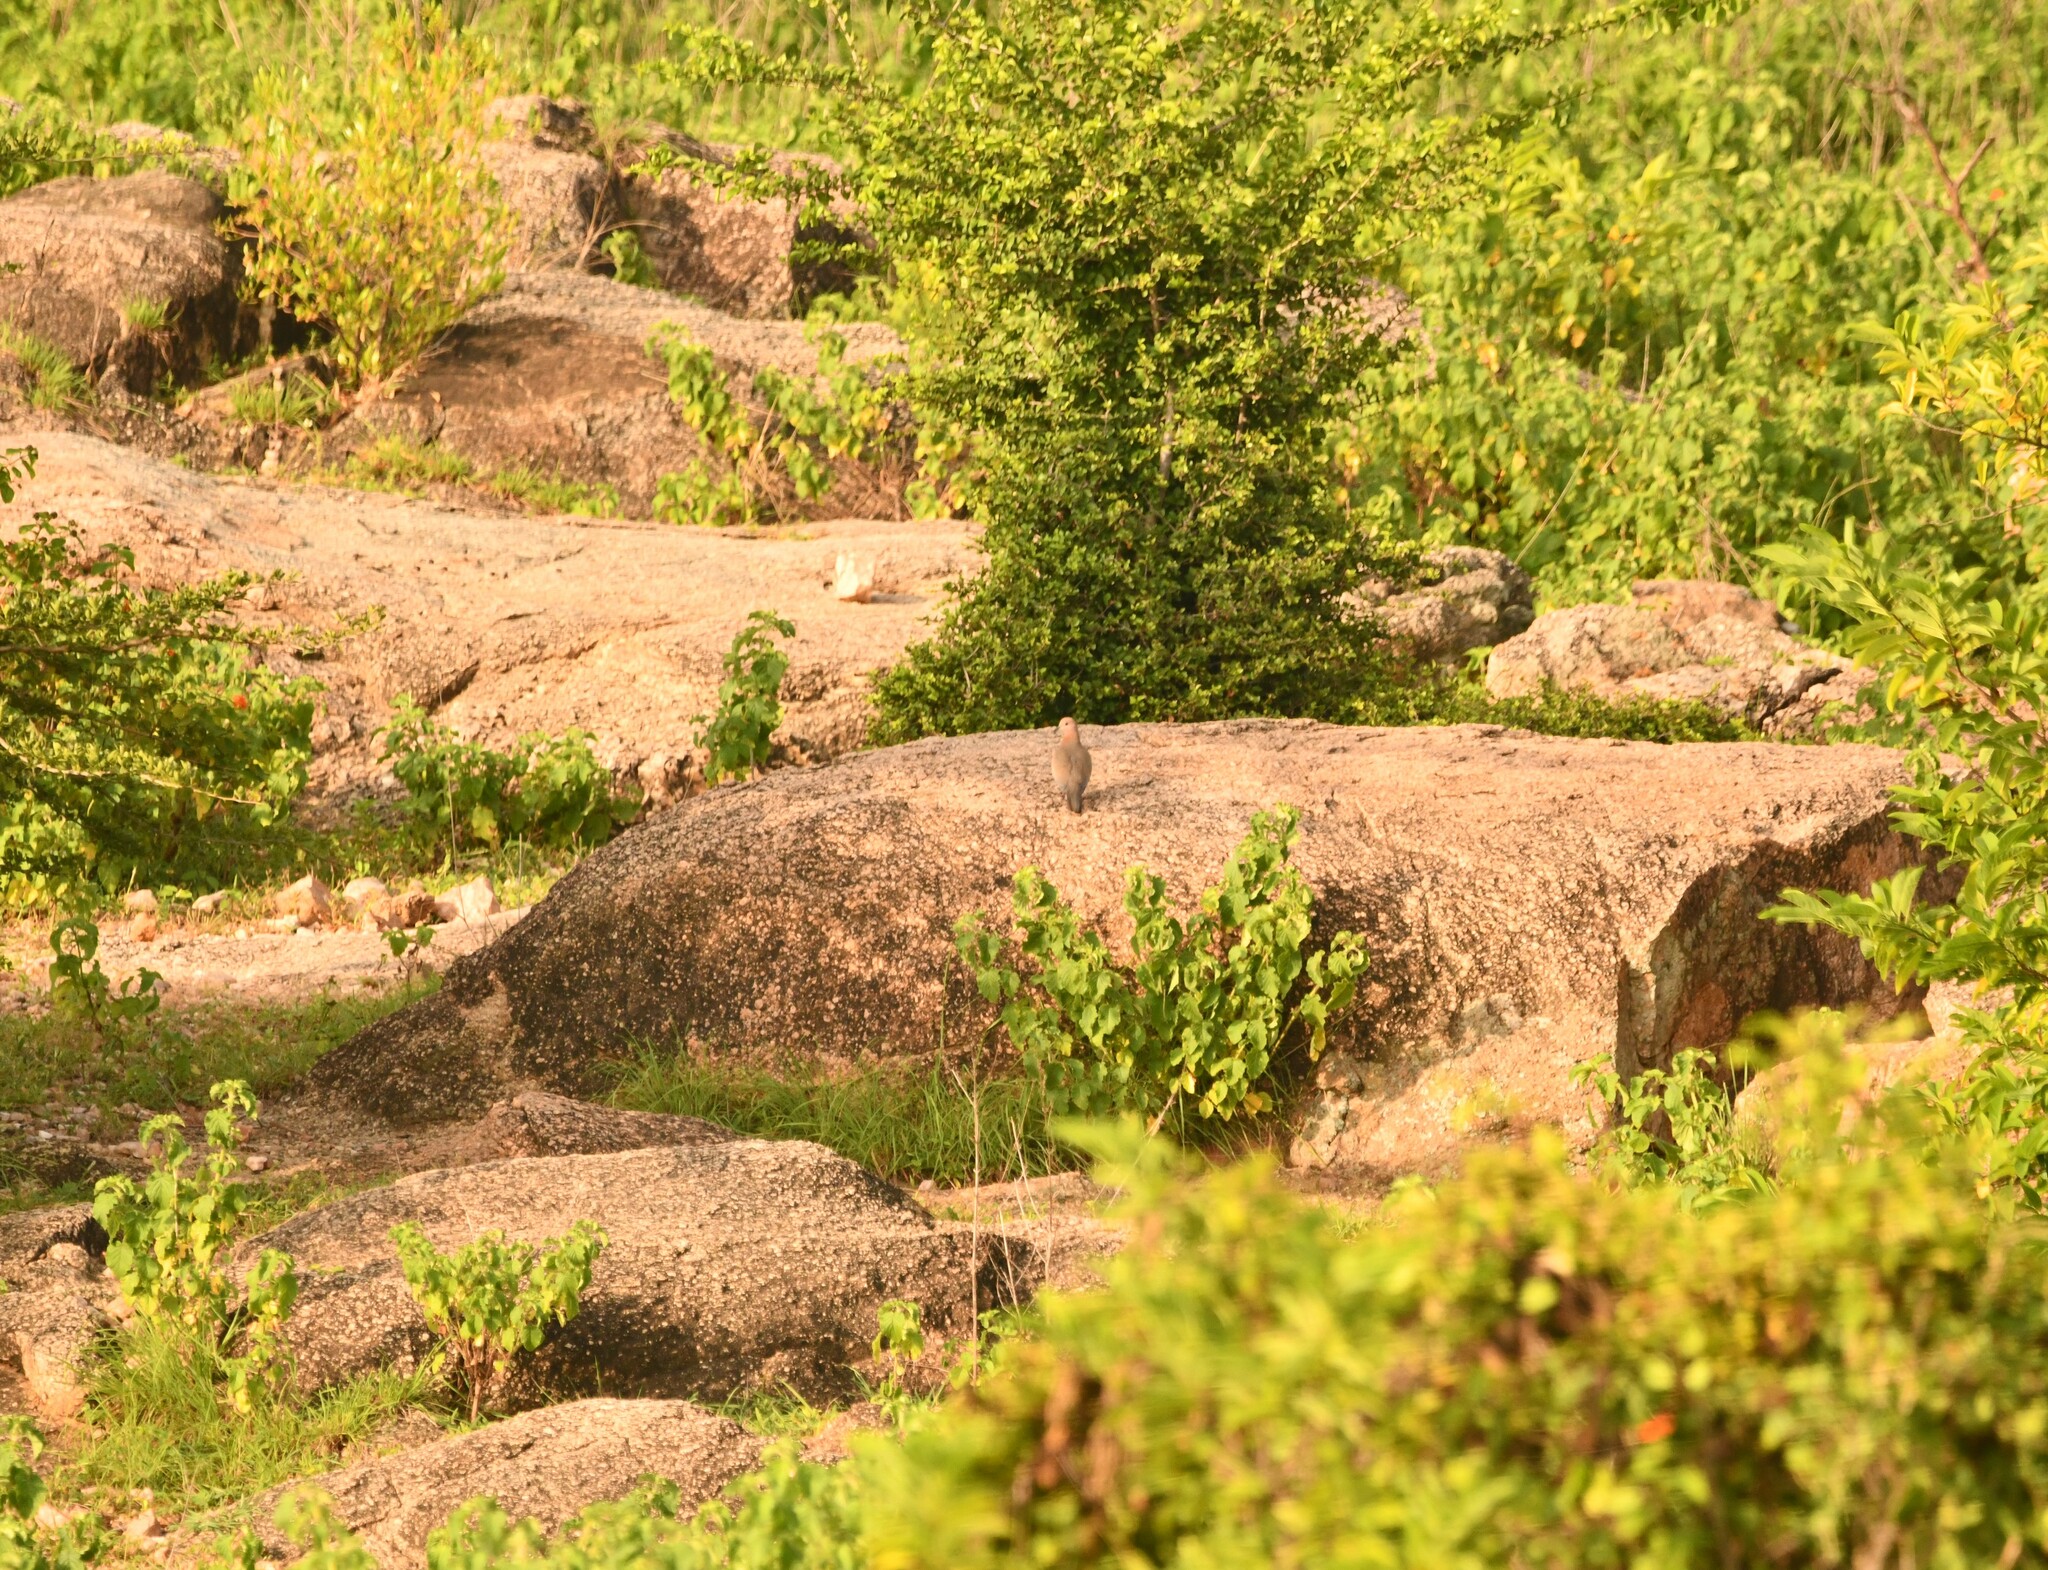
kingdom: Animalia
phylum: Chordata
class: Aves
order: Columbiformes
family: Columbidae
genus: Spilopelia
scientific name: Spilopelia senegalensis
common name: Laughing dove
